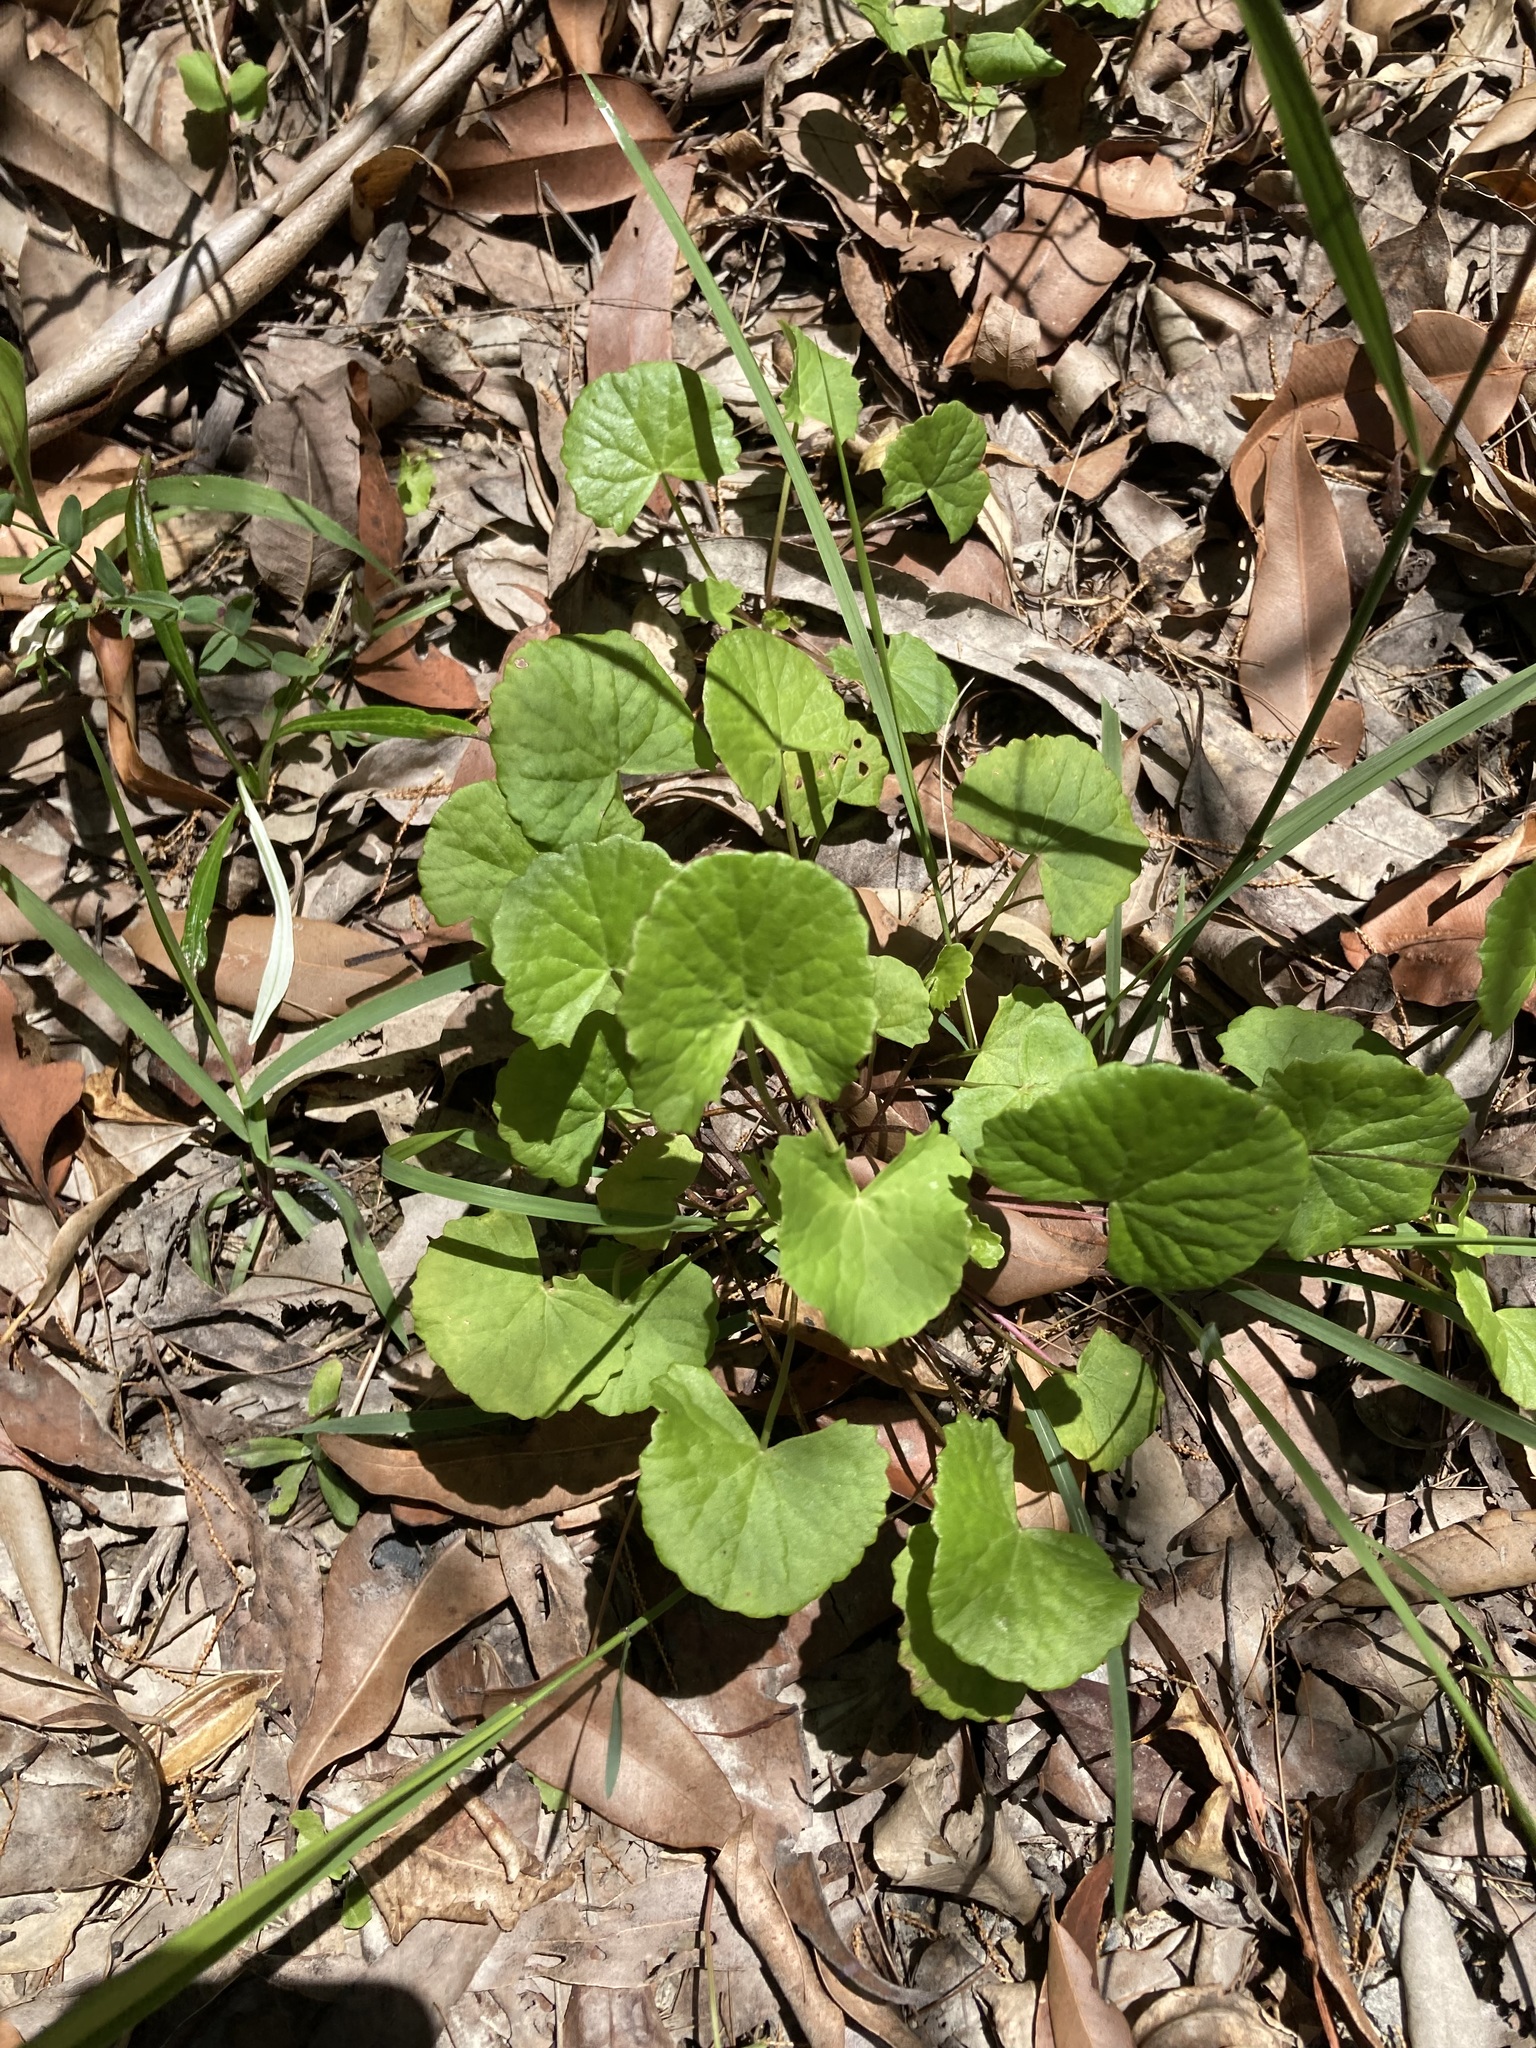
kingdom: Plantae
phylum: Tracheophyta
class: Magnoliopsida
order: Apiales
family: Apiaceae
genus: Centella
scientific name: Centella asiatica
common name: Spadeleaf
